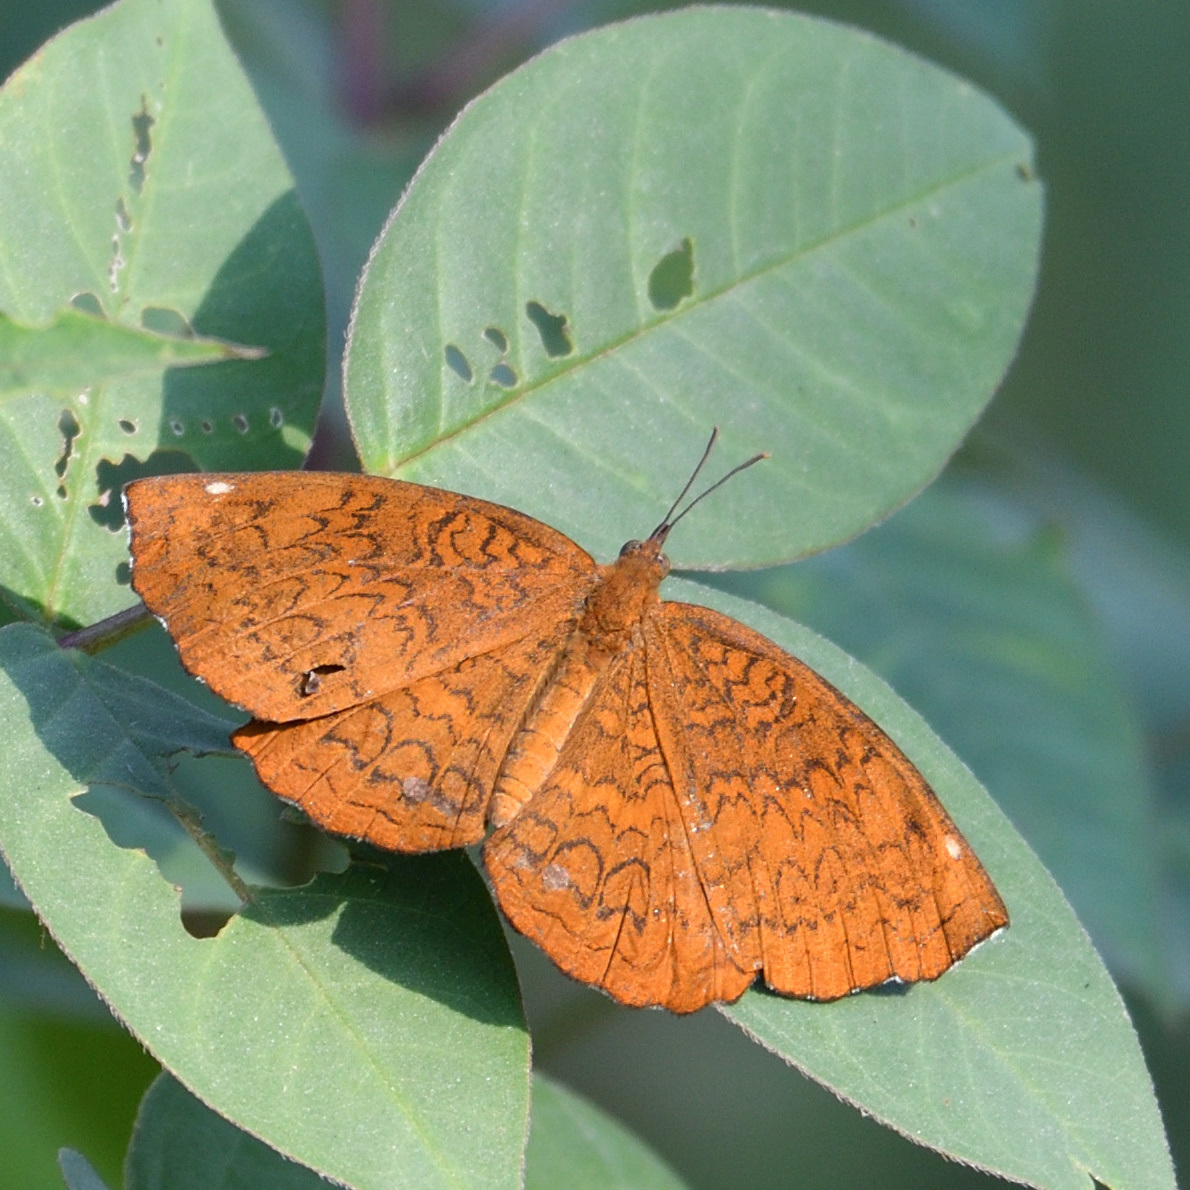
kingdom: Animalia
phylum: Arthropoda
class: Insecta
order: Lepidoptera
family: Nymphalidae
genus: Ariadne
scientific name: Ariadne merione
